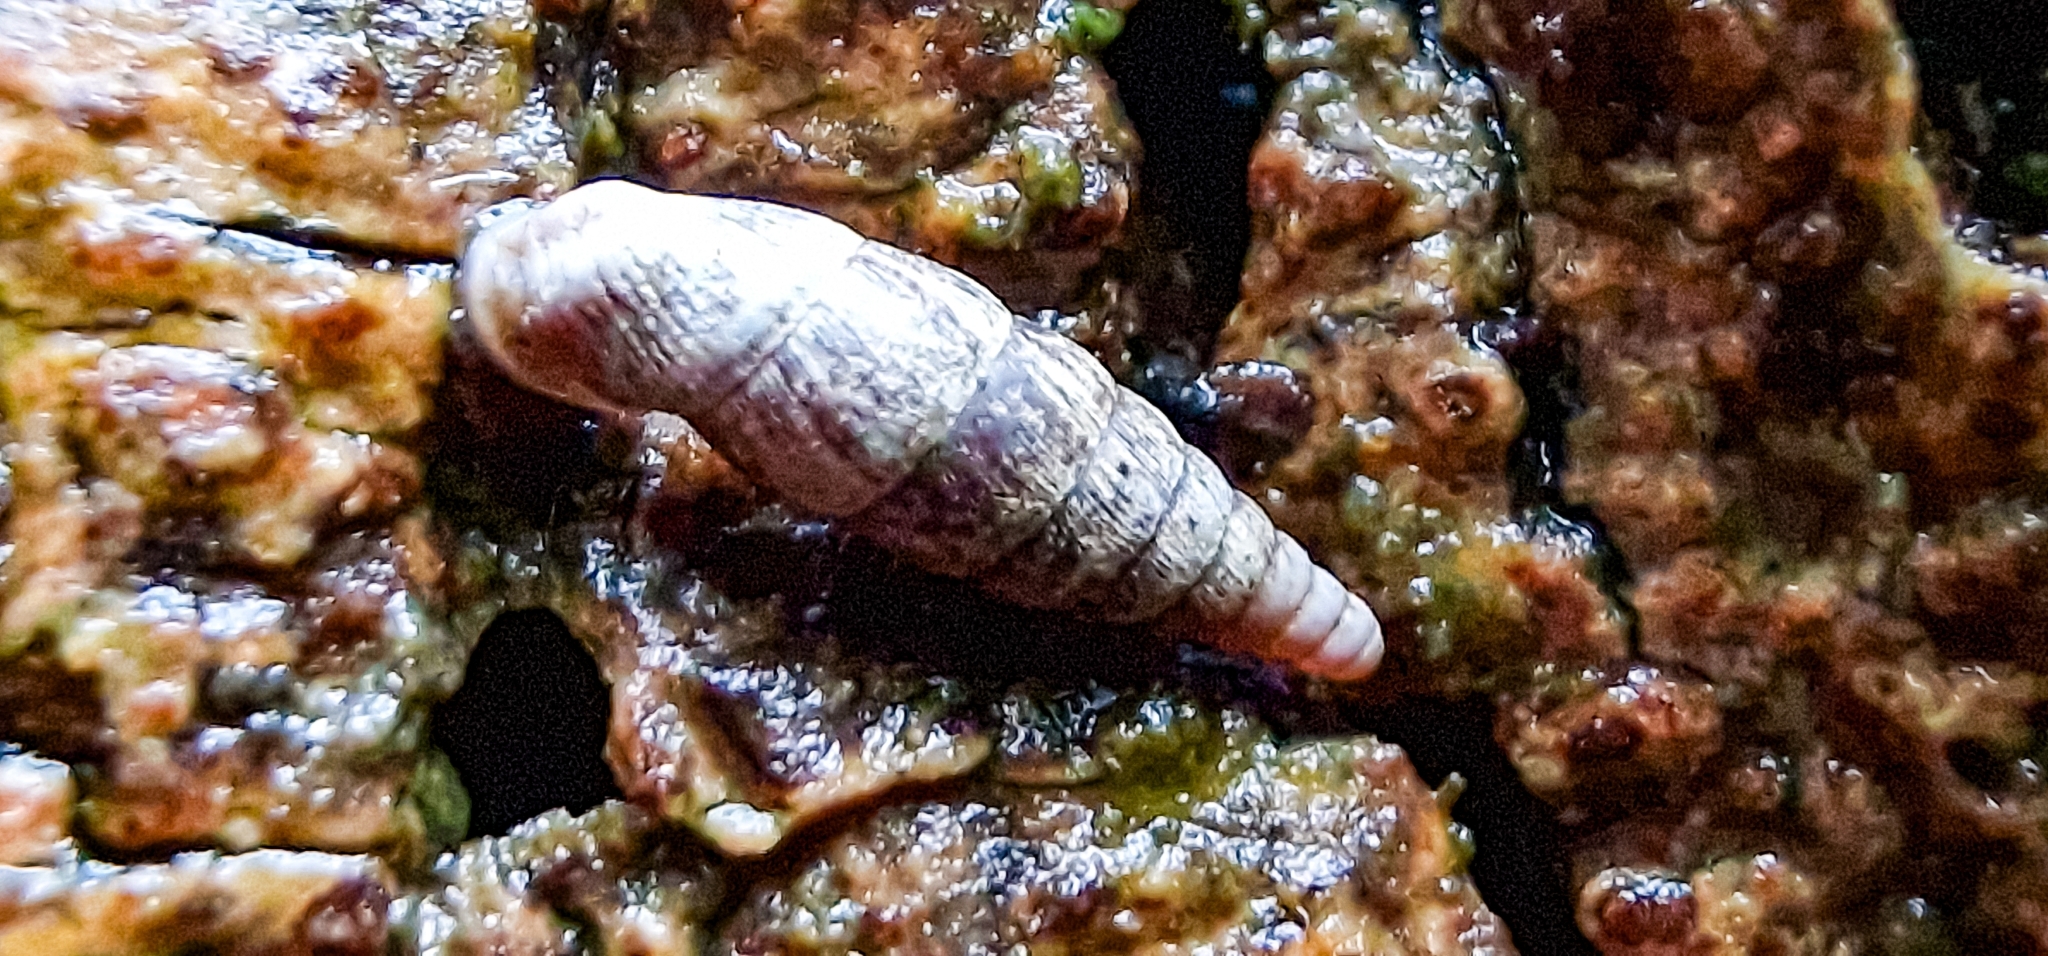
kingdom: Animalia
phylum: Mollusca
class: Gastropoda
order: Stylommatophora
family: Clausiliidae
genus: Clausilia
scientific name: Clausilia bidentata
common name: Two-toothed door snail
